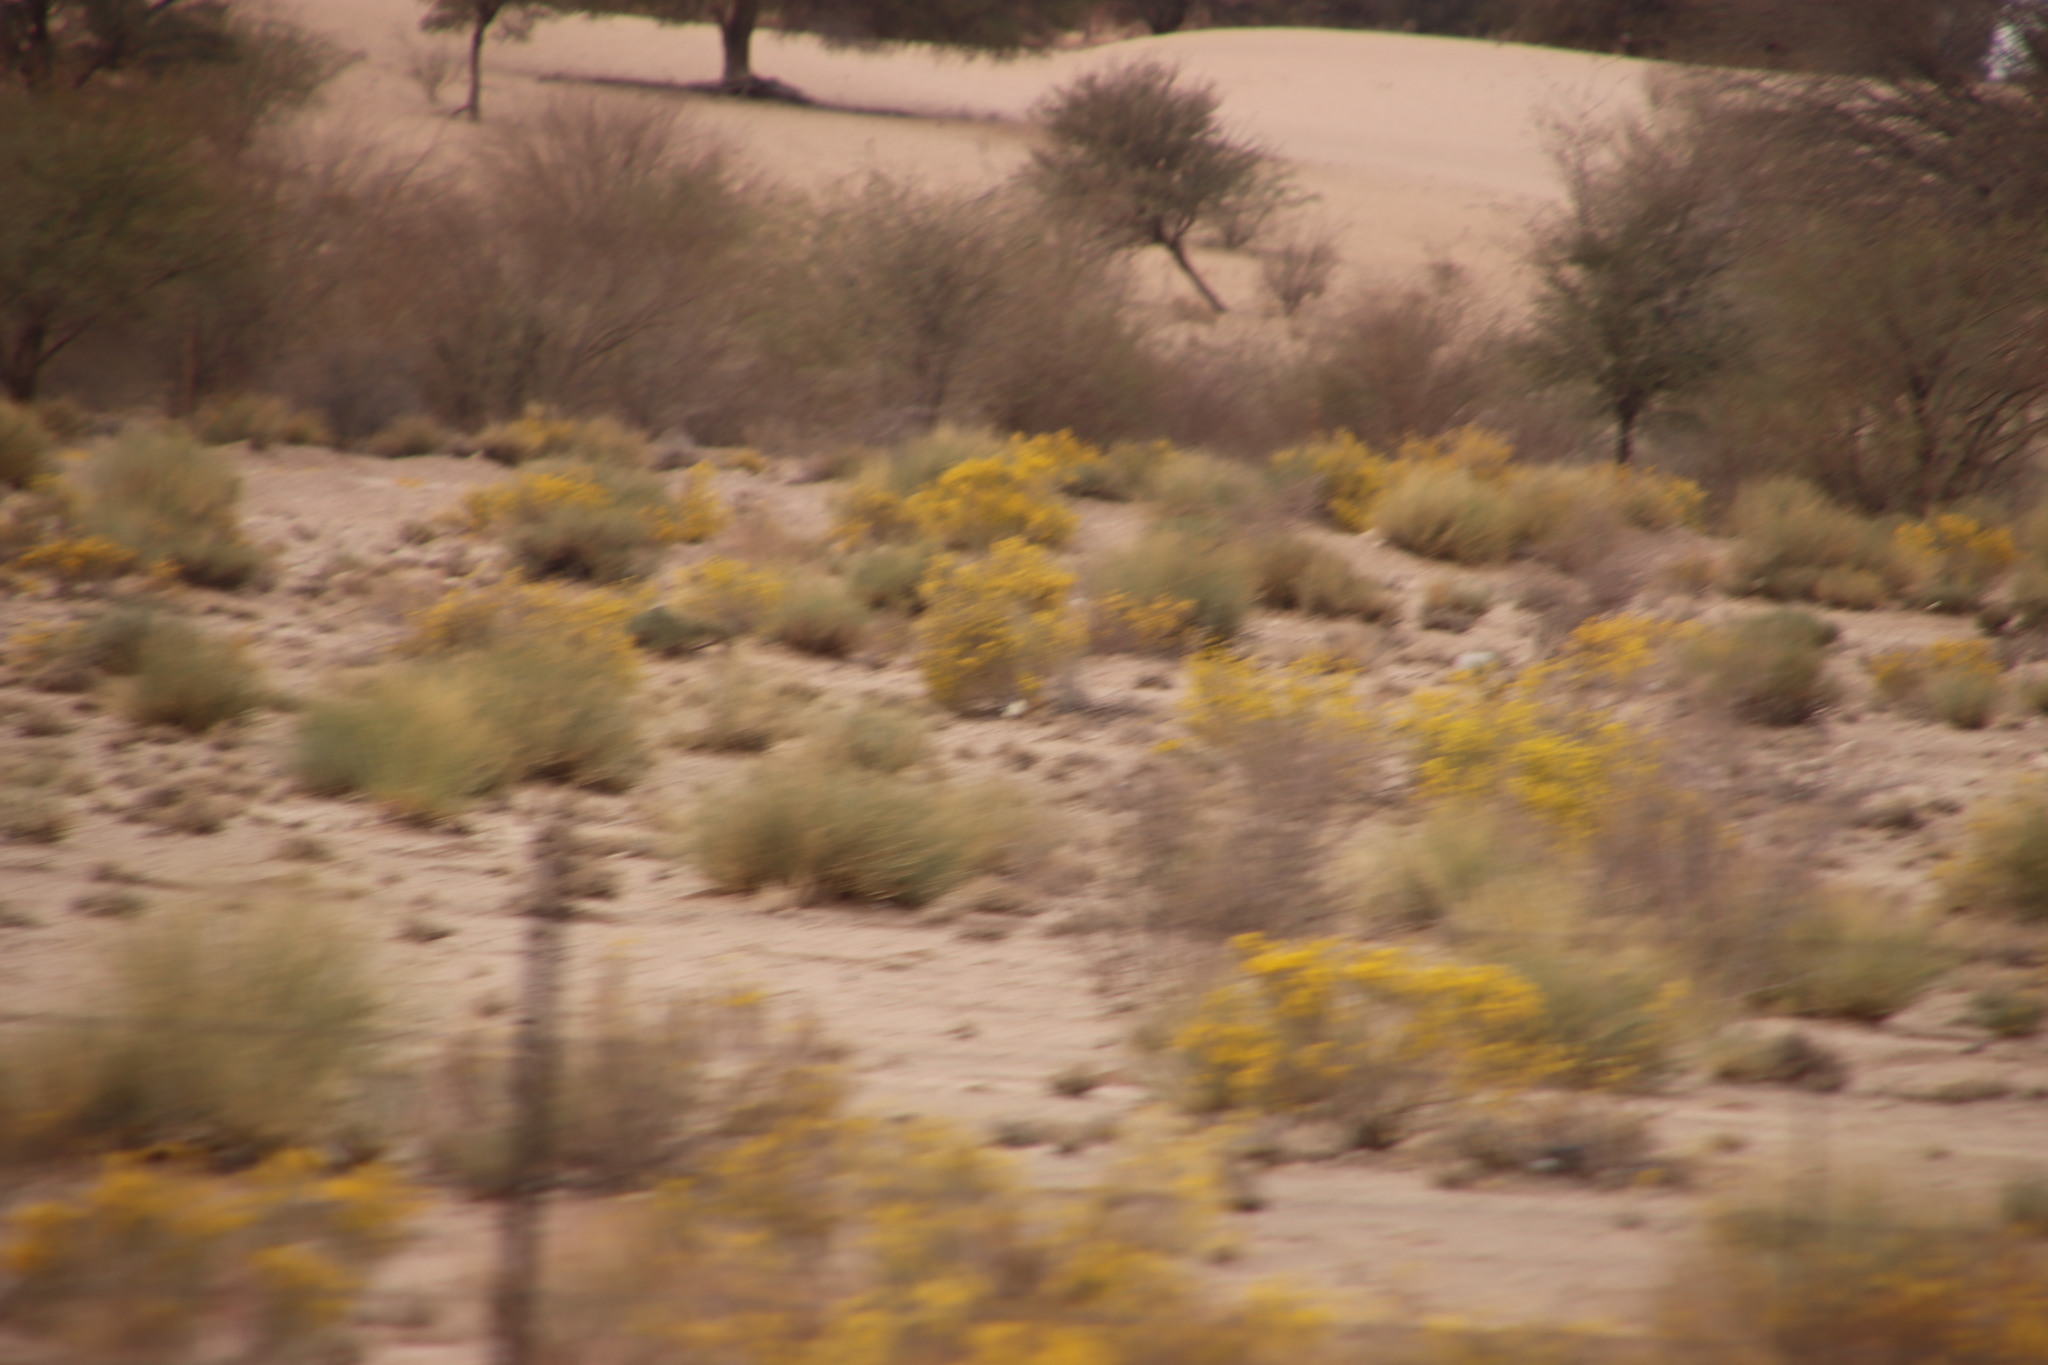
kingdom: Plantae
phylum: Tracheophyta
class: Magnoliopsida
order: Malvales
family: Thymelaeaceae
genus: Gnidia
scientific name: Gnidia polycephala
